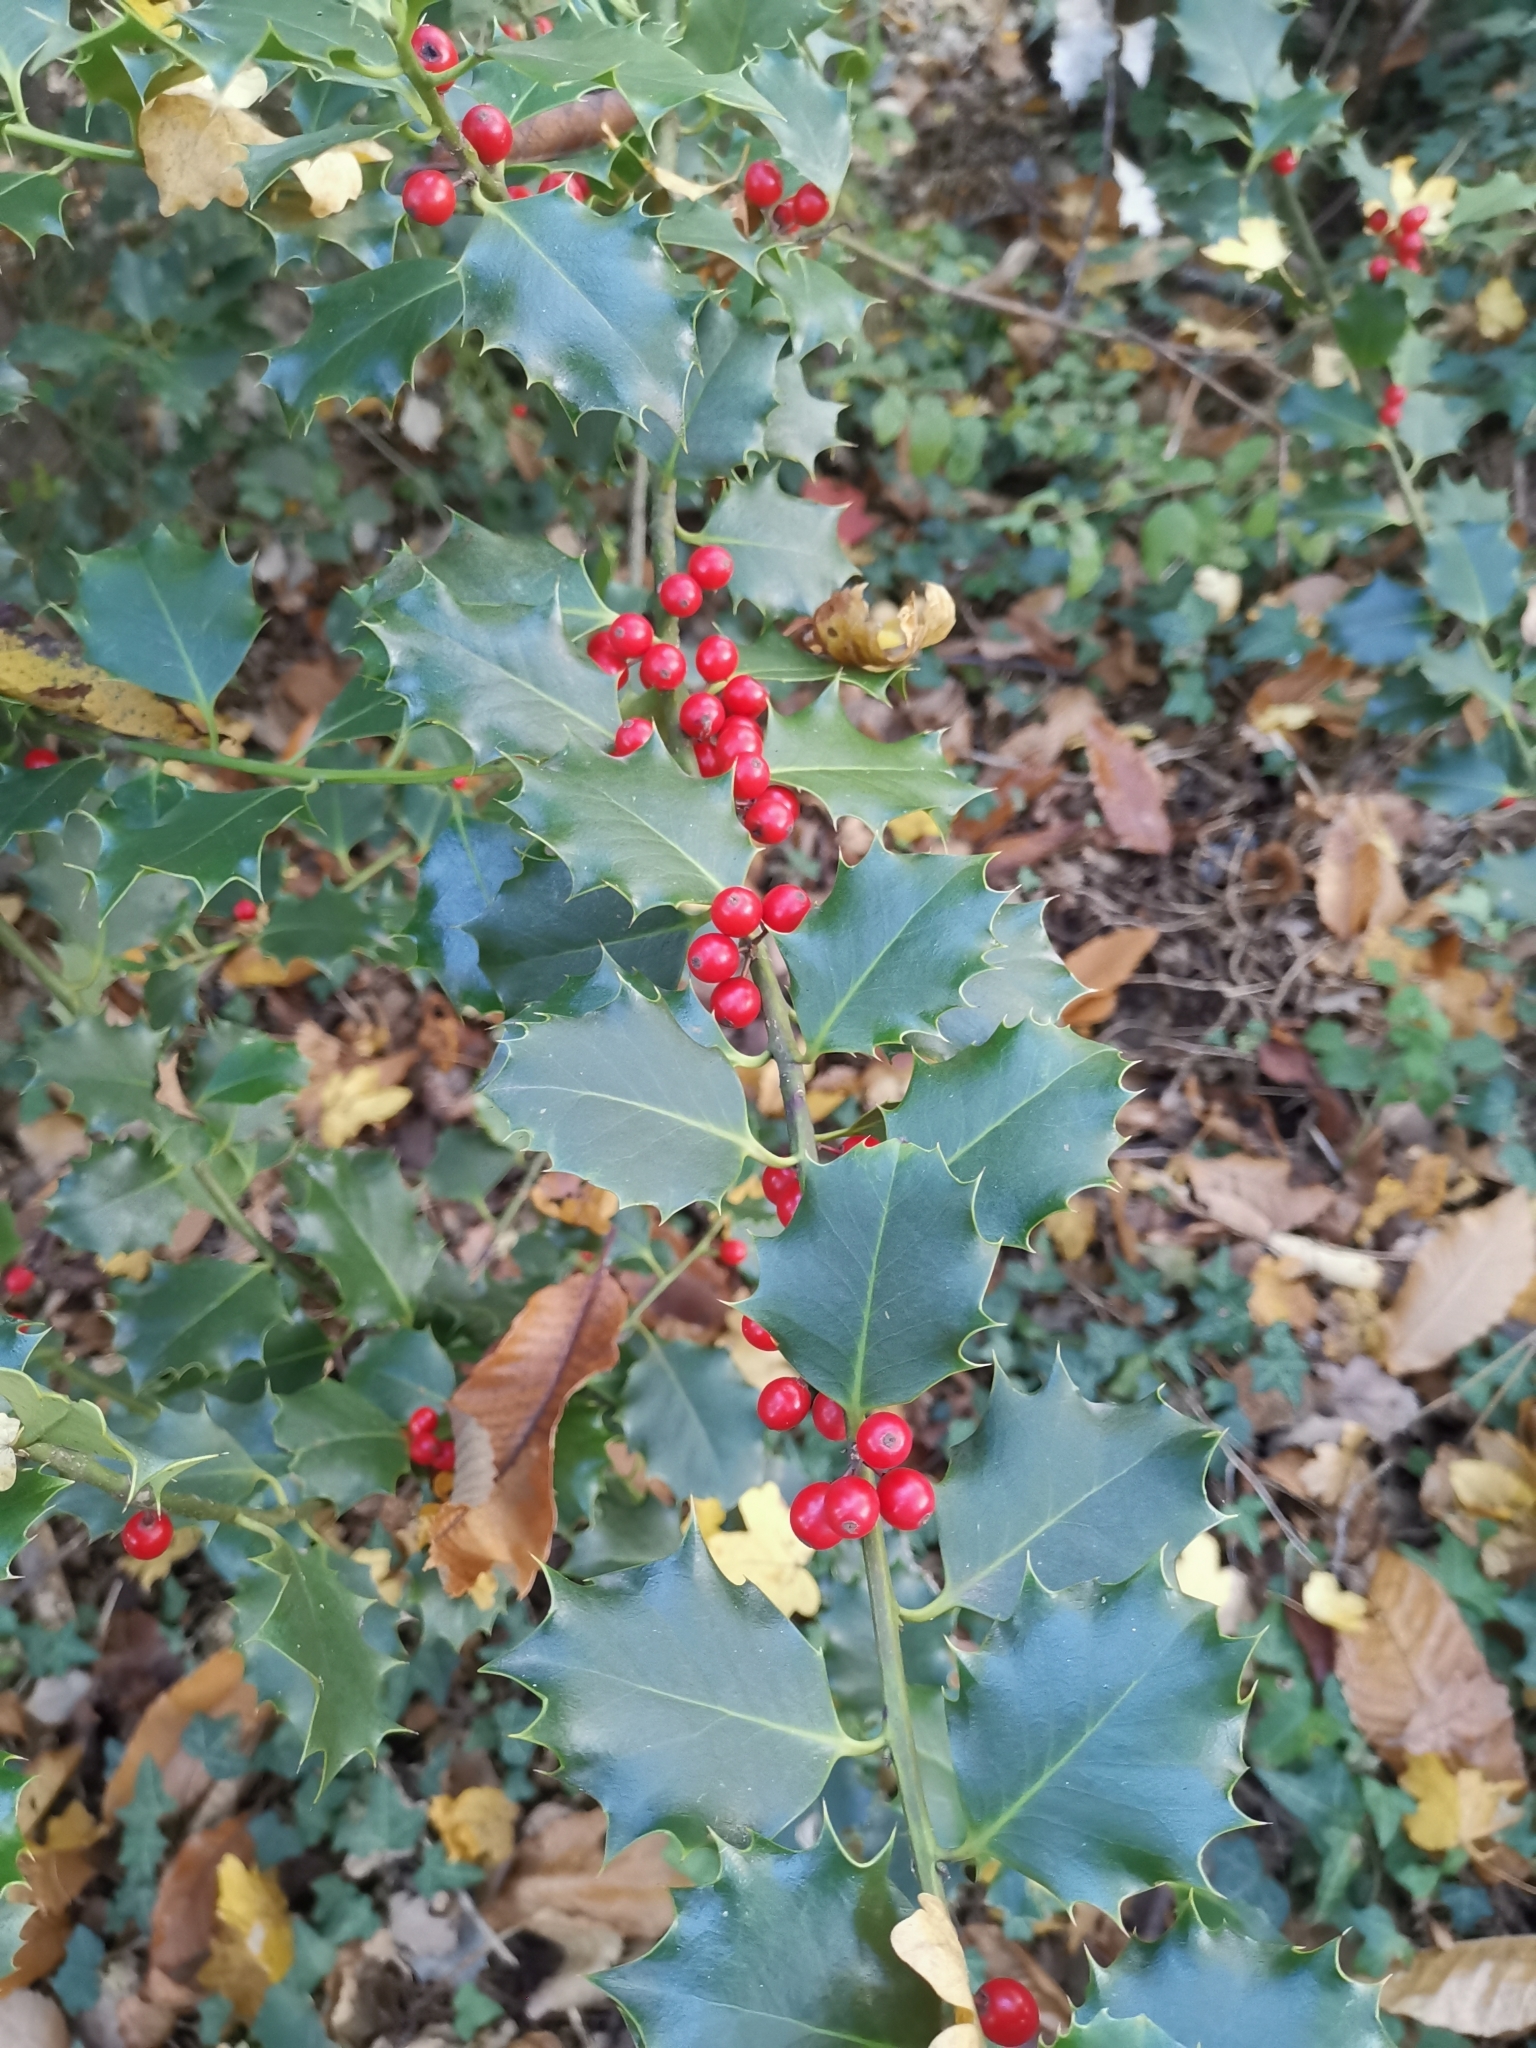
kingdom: Plantae
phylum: Tracheophyta
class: Magnoliopsida
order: Aquifoliales
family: Aquifoliaceae
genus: Ilex
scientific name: Ilex aquifolium
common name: English holly
